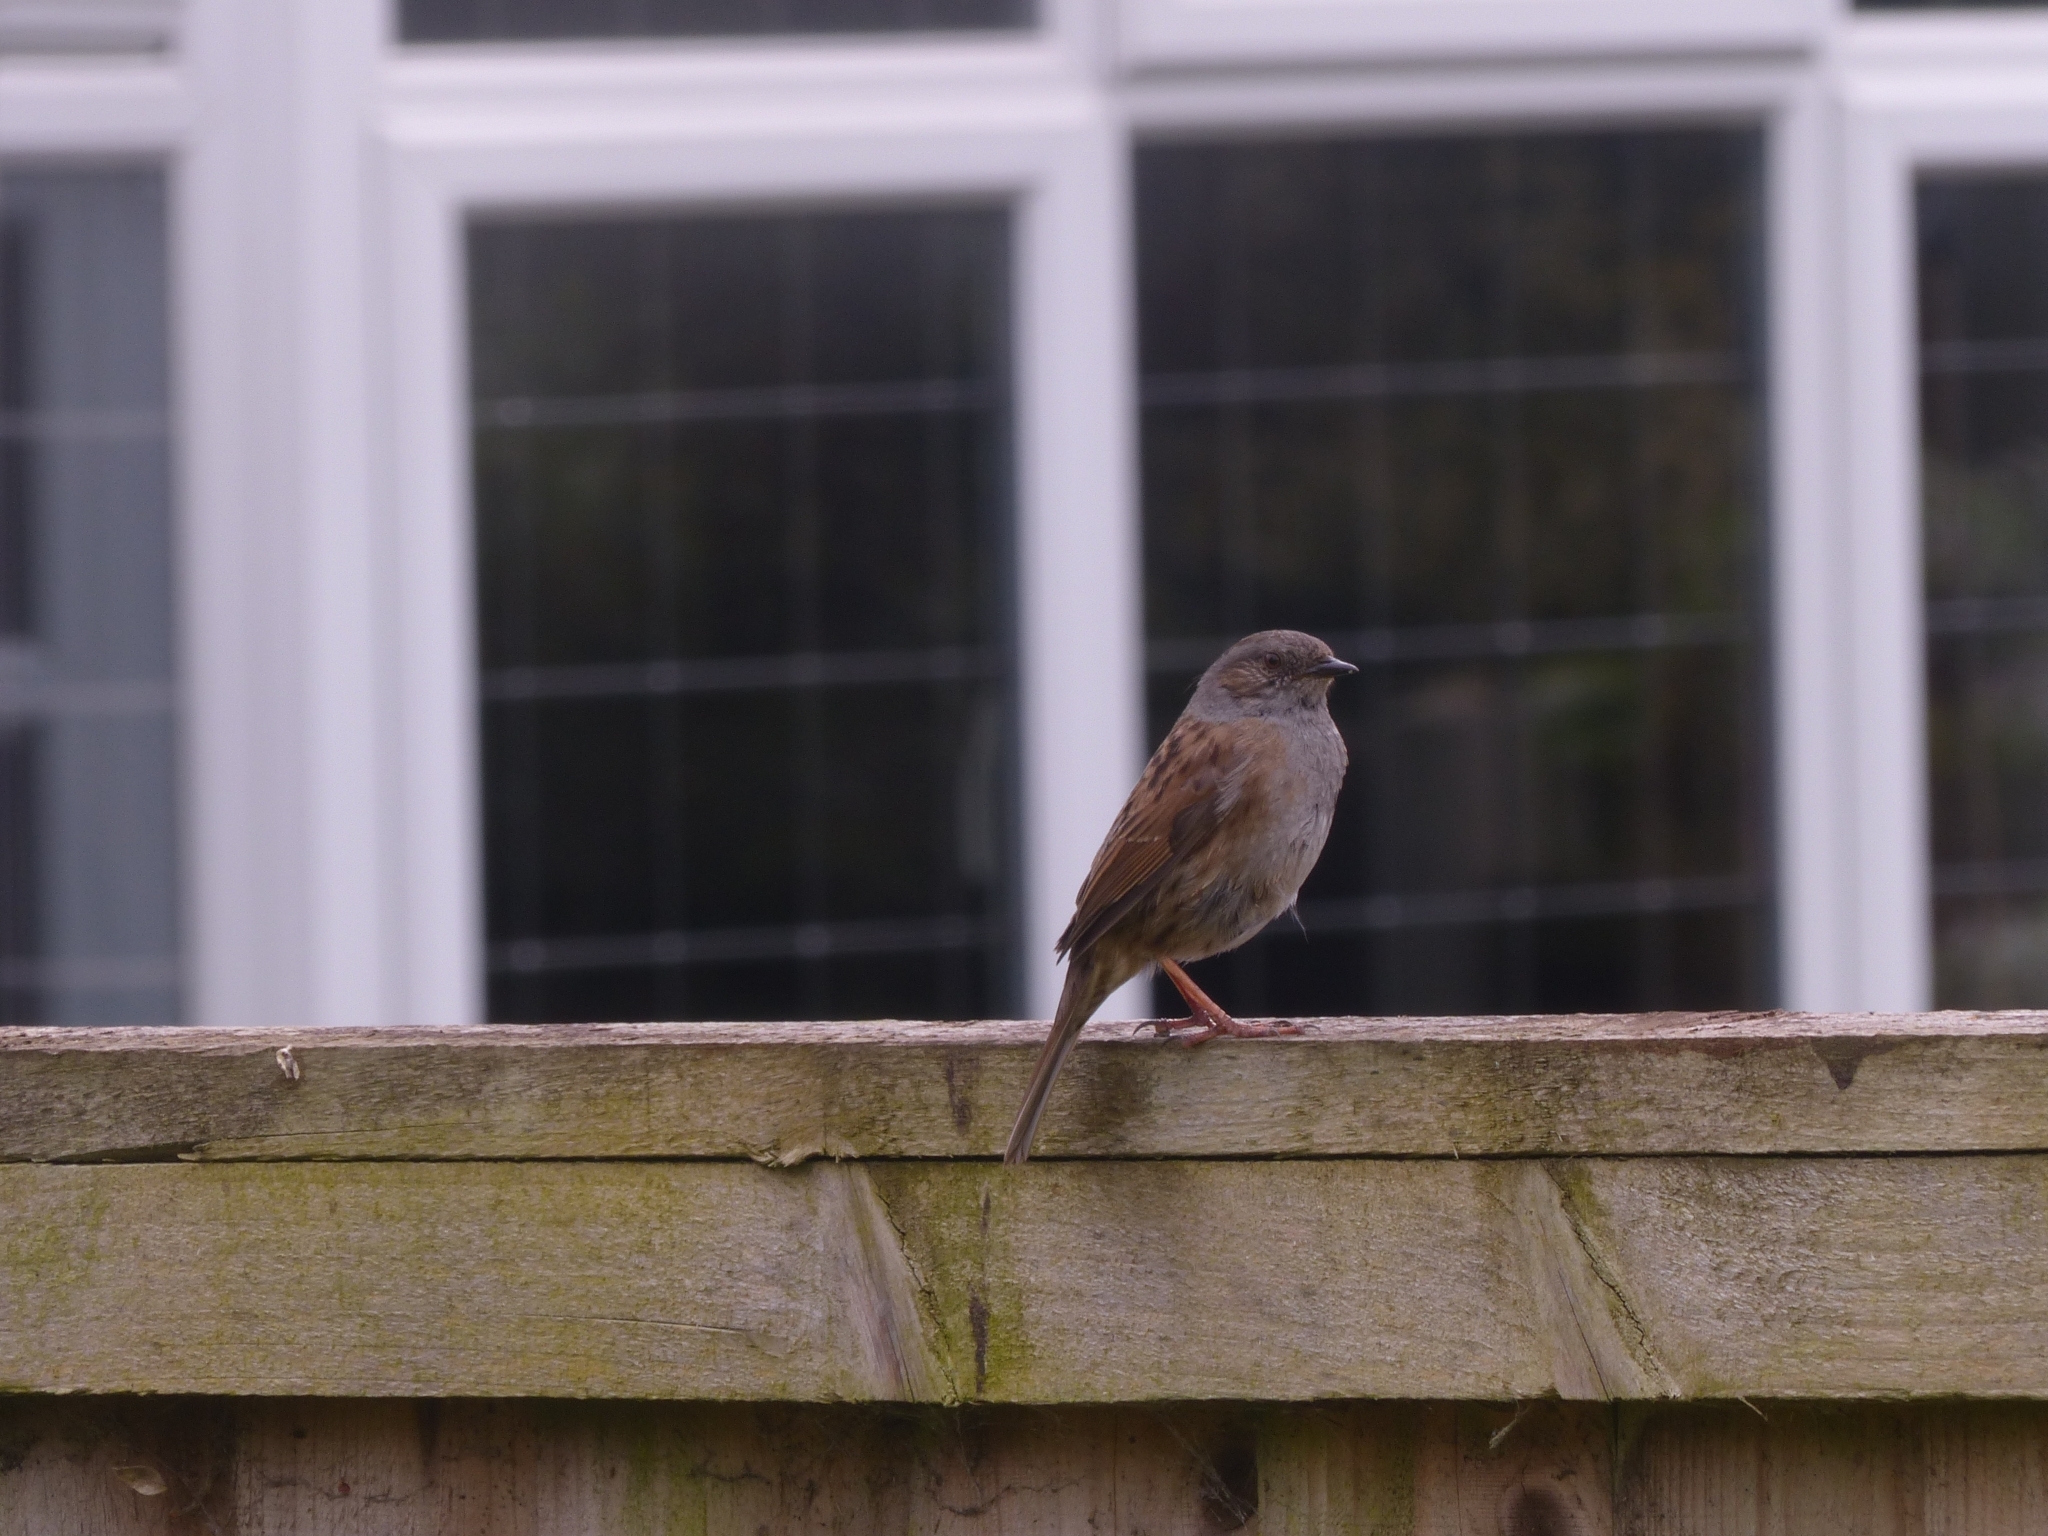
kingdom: Animalia
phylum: Chordata
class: Aves
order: Passeriformes
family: Prunellidae
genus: Prunella
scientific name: Prunella modularis
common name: Dunnock
